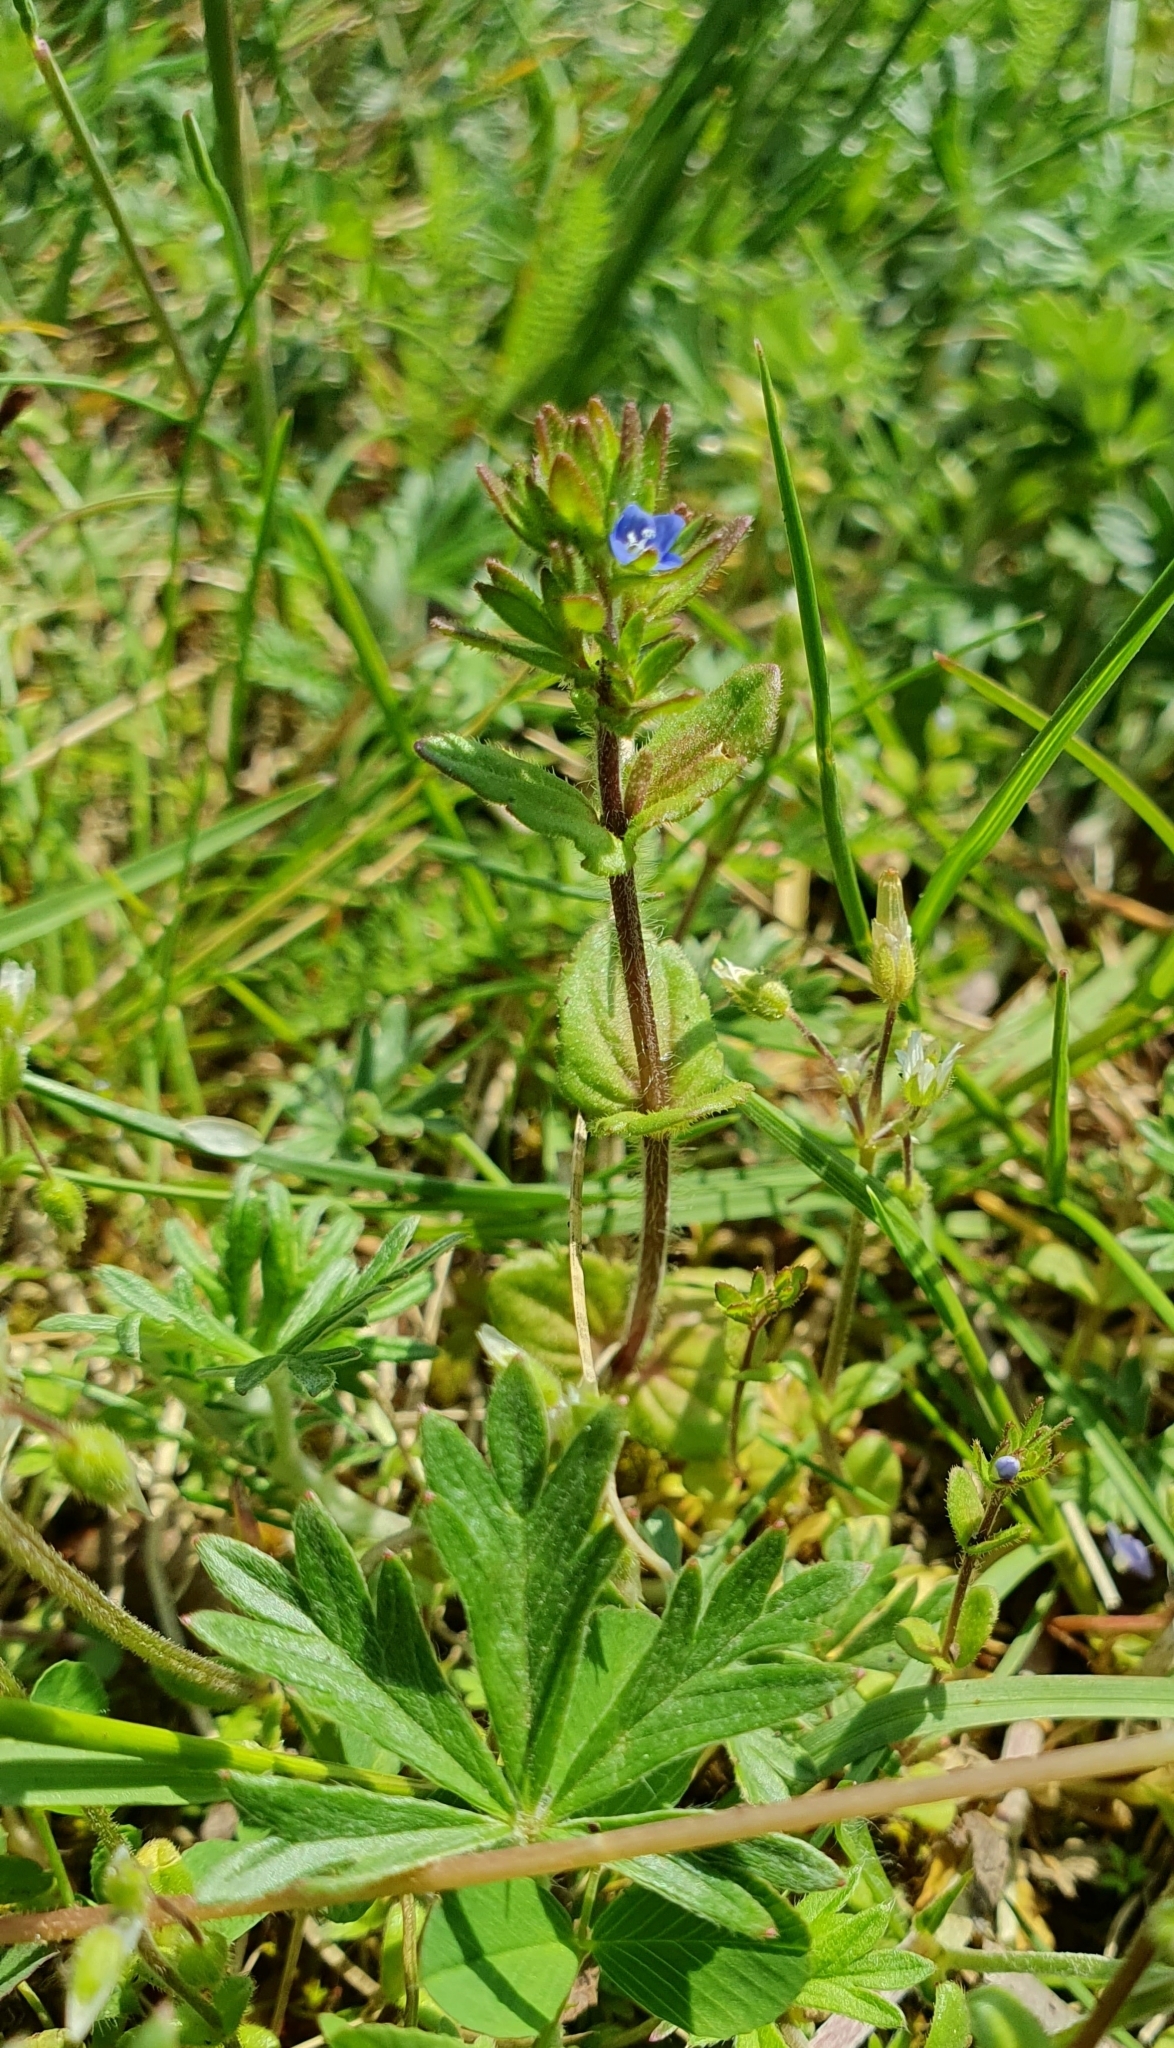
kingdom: Plantae
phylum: Tracheophyta
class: Magnoliopsida
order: Lamiales
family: Plantaginaceae
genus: Veronica
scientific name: Veronica arvensis
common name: Corn speedwell
